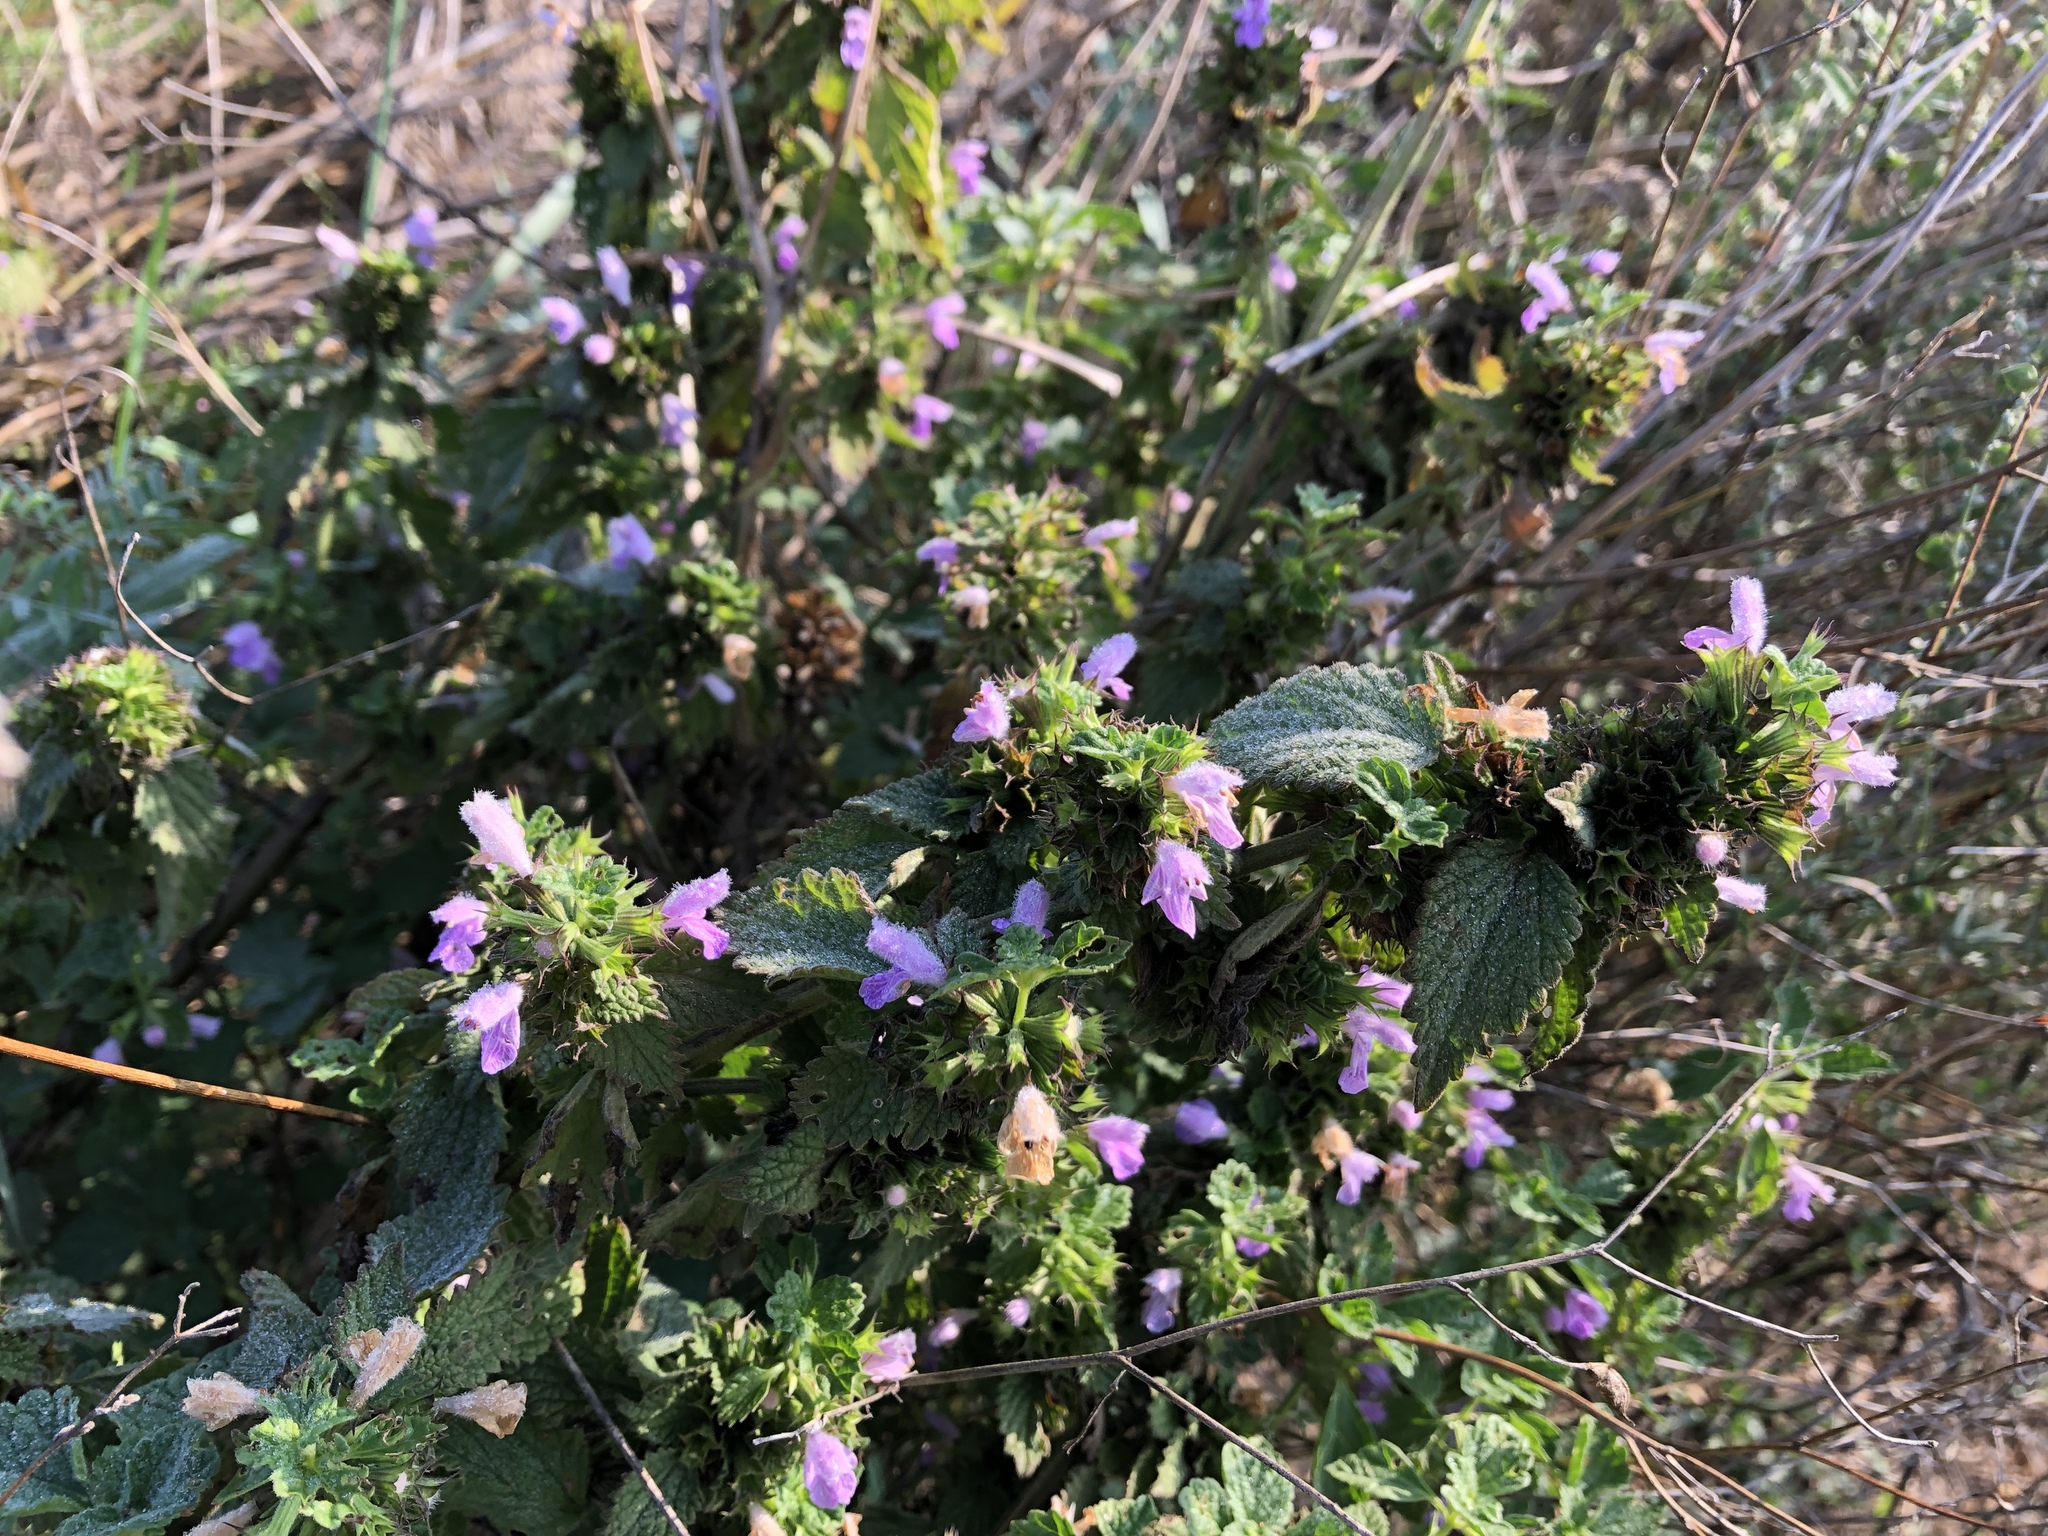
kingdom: Plantae
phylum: Tracheophyta
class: Magnoliopsida
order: Lamiales
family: Lamiaceae
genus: Ballota
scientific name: Ballota nigra
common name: Black horehound
